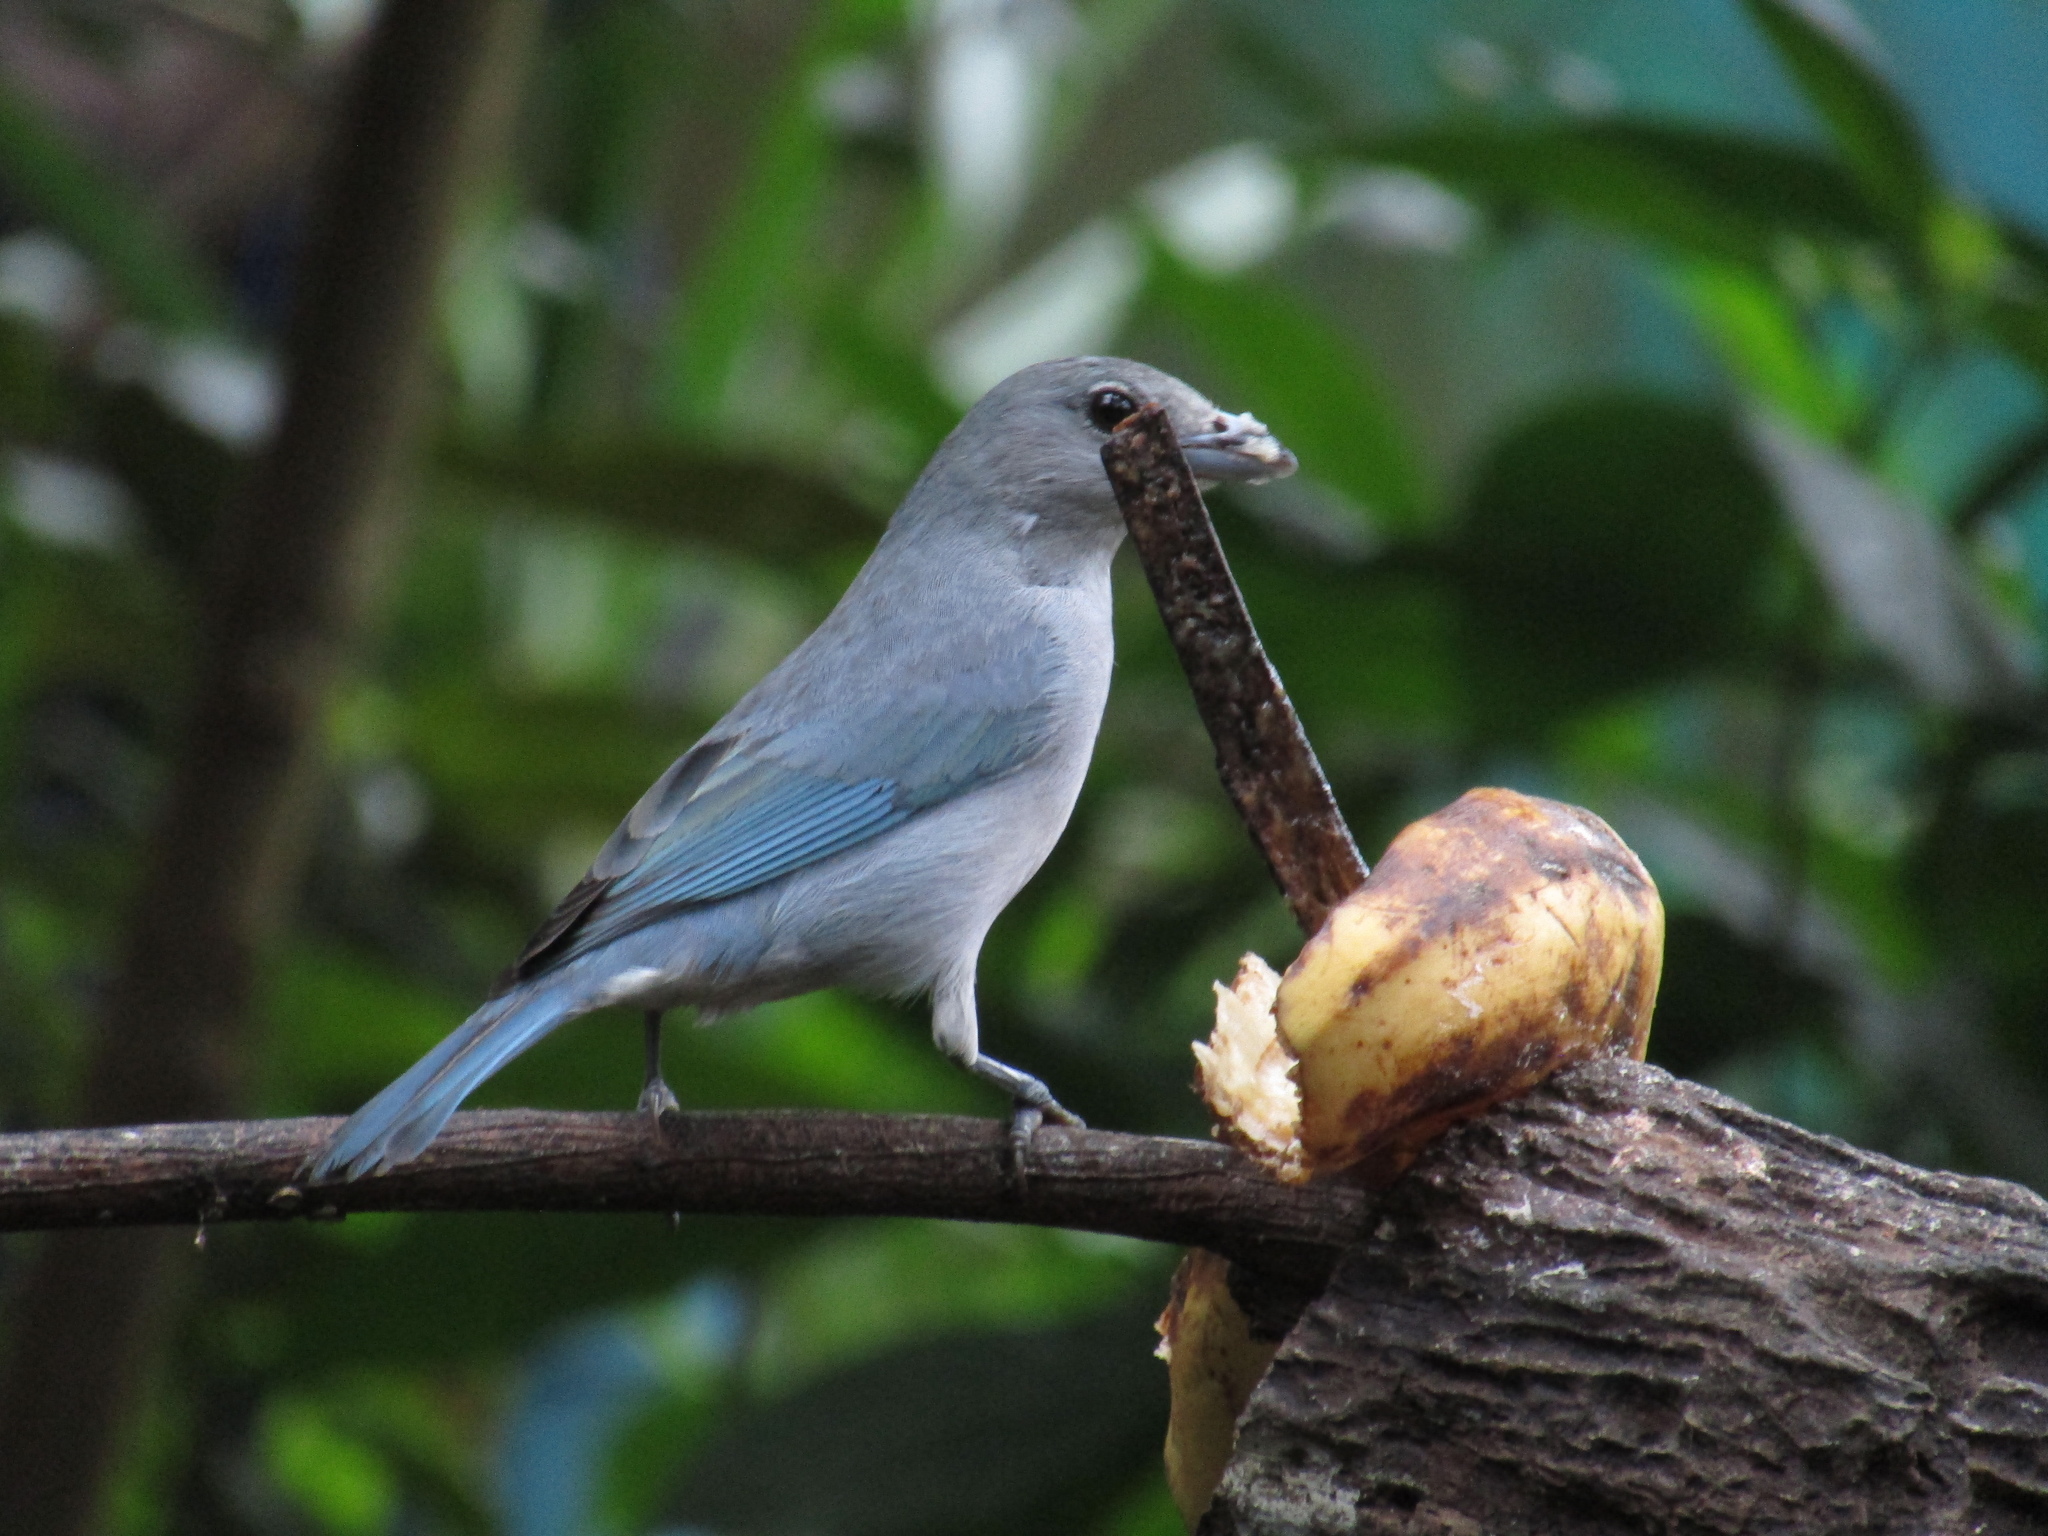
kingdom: Animalia
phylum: Chordata
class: Aves
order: Passeriformes
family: Thraupidae
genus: Thraupis
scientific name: Thraupis sayaca
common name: Sayaca tanager
